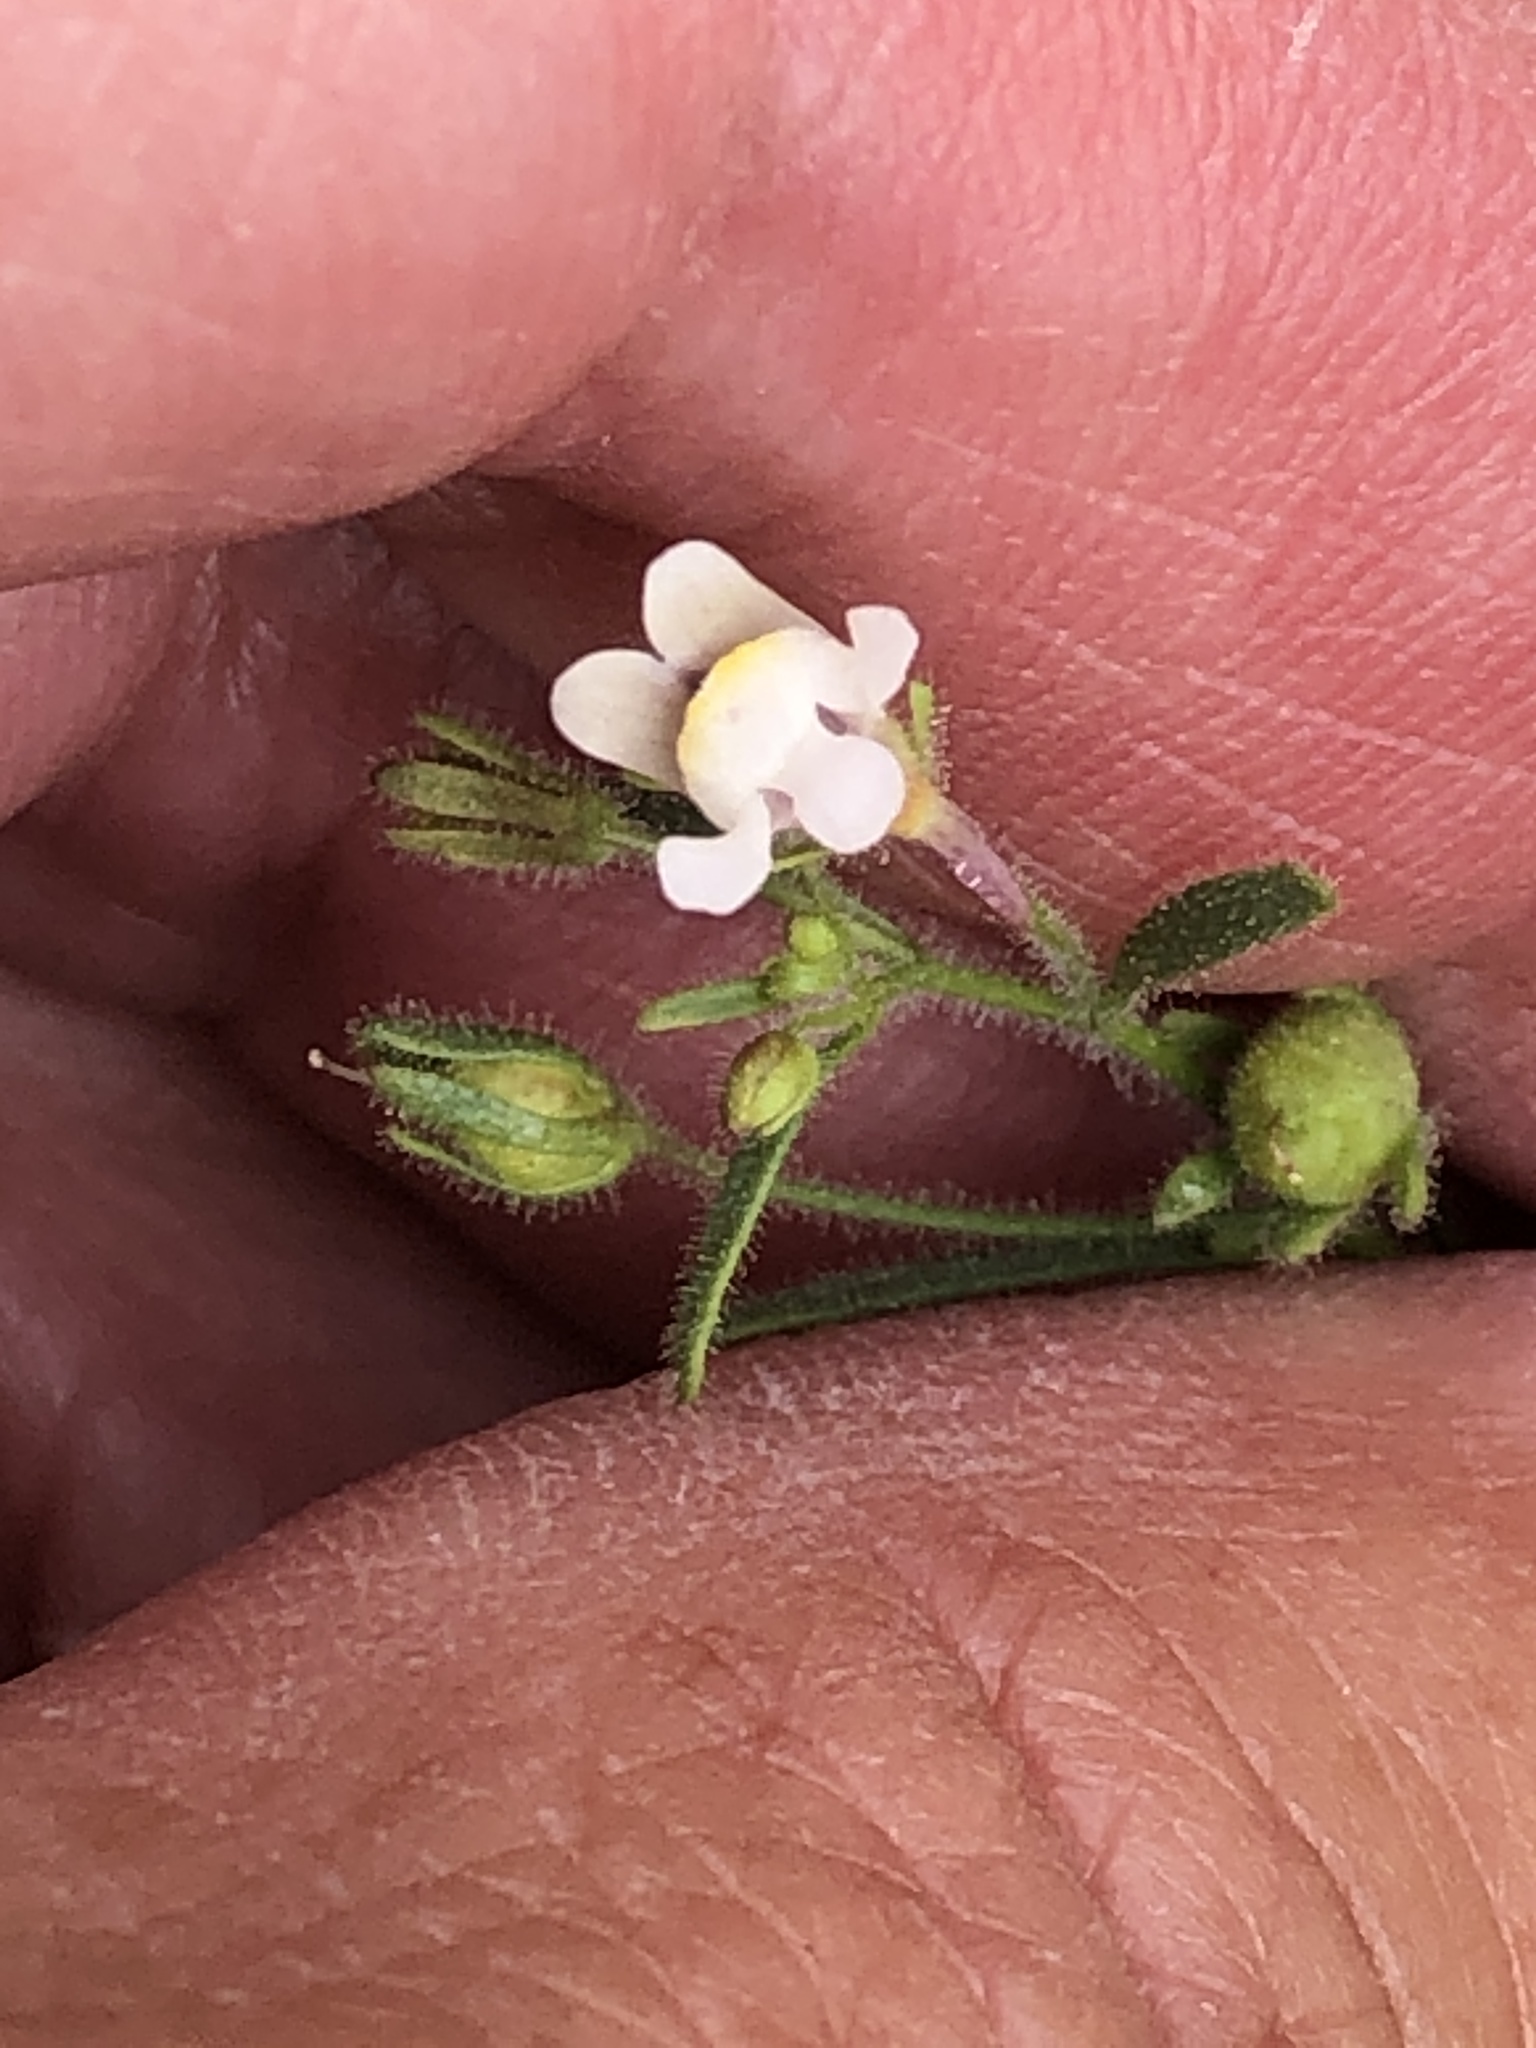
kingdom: Plantae
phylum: Tracheophyta
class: Magnoliopsida
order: Lamiales
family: Plantaginaceae
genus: Chaenorhinum
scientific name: Chaenorhinum minus
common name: Dwarf snapdragon
